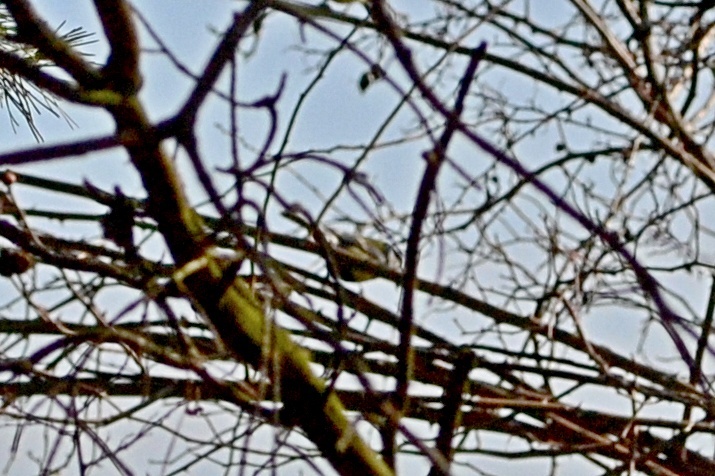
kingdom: Animalia
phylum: Chordata
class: Aves
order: Passeriformes
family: Paridae
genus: Cyanistes
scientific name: Cyanistes caeruleus
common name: Eurasian blue tit
